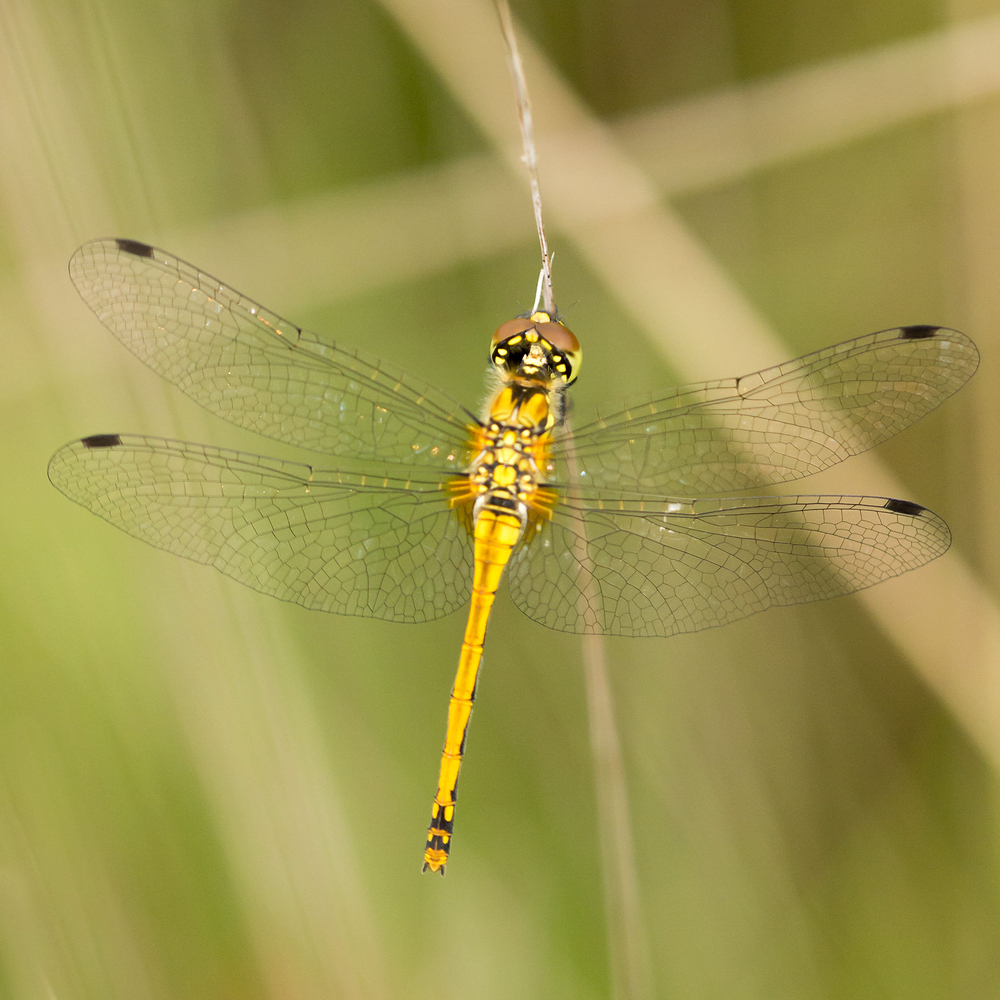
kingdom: Animalia
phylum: Arthropoda
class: Insecta
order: Odonata
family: Libellulidae
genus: Sympetrum
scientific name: Sympetrum danae
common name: Black darter
